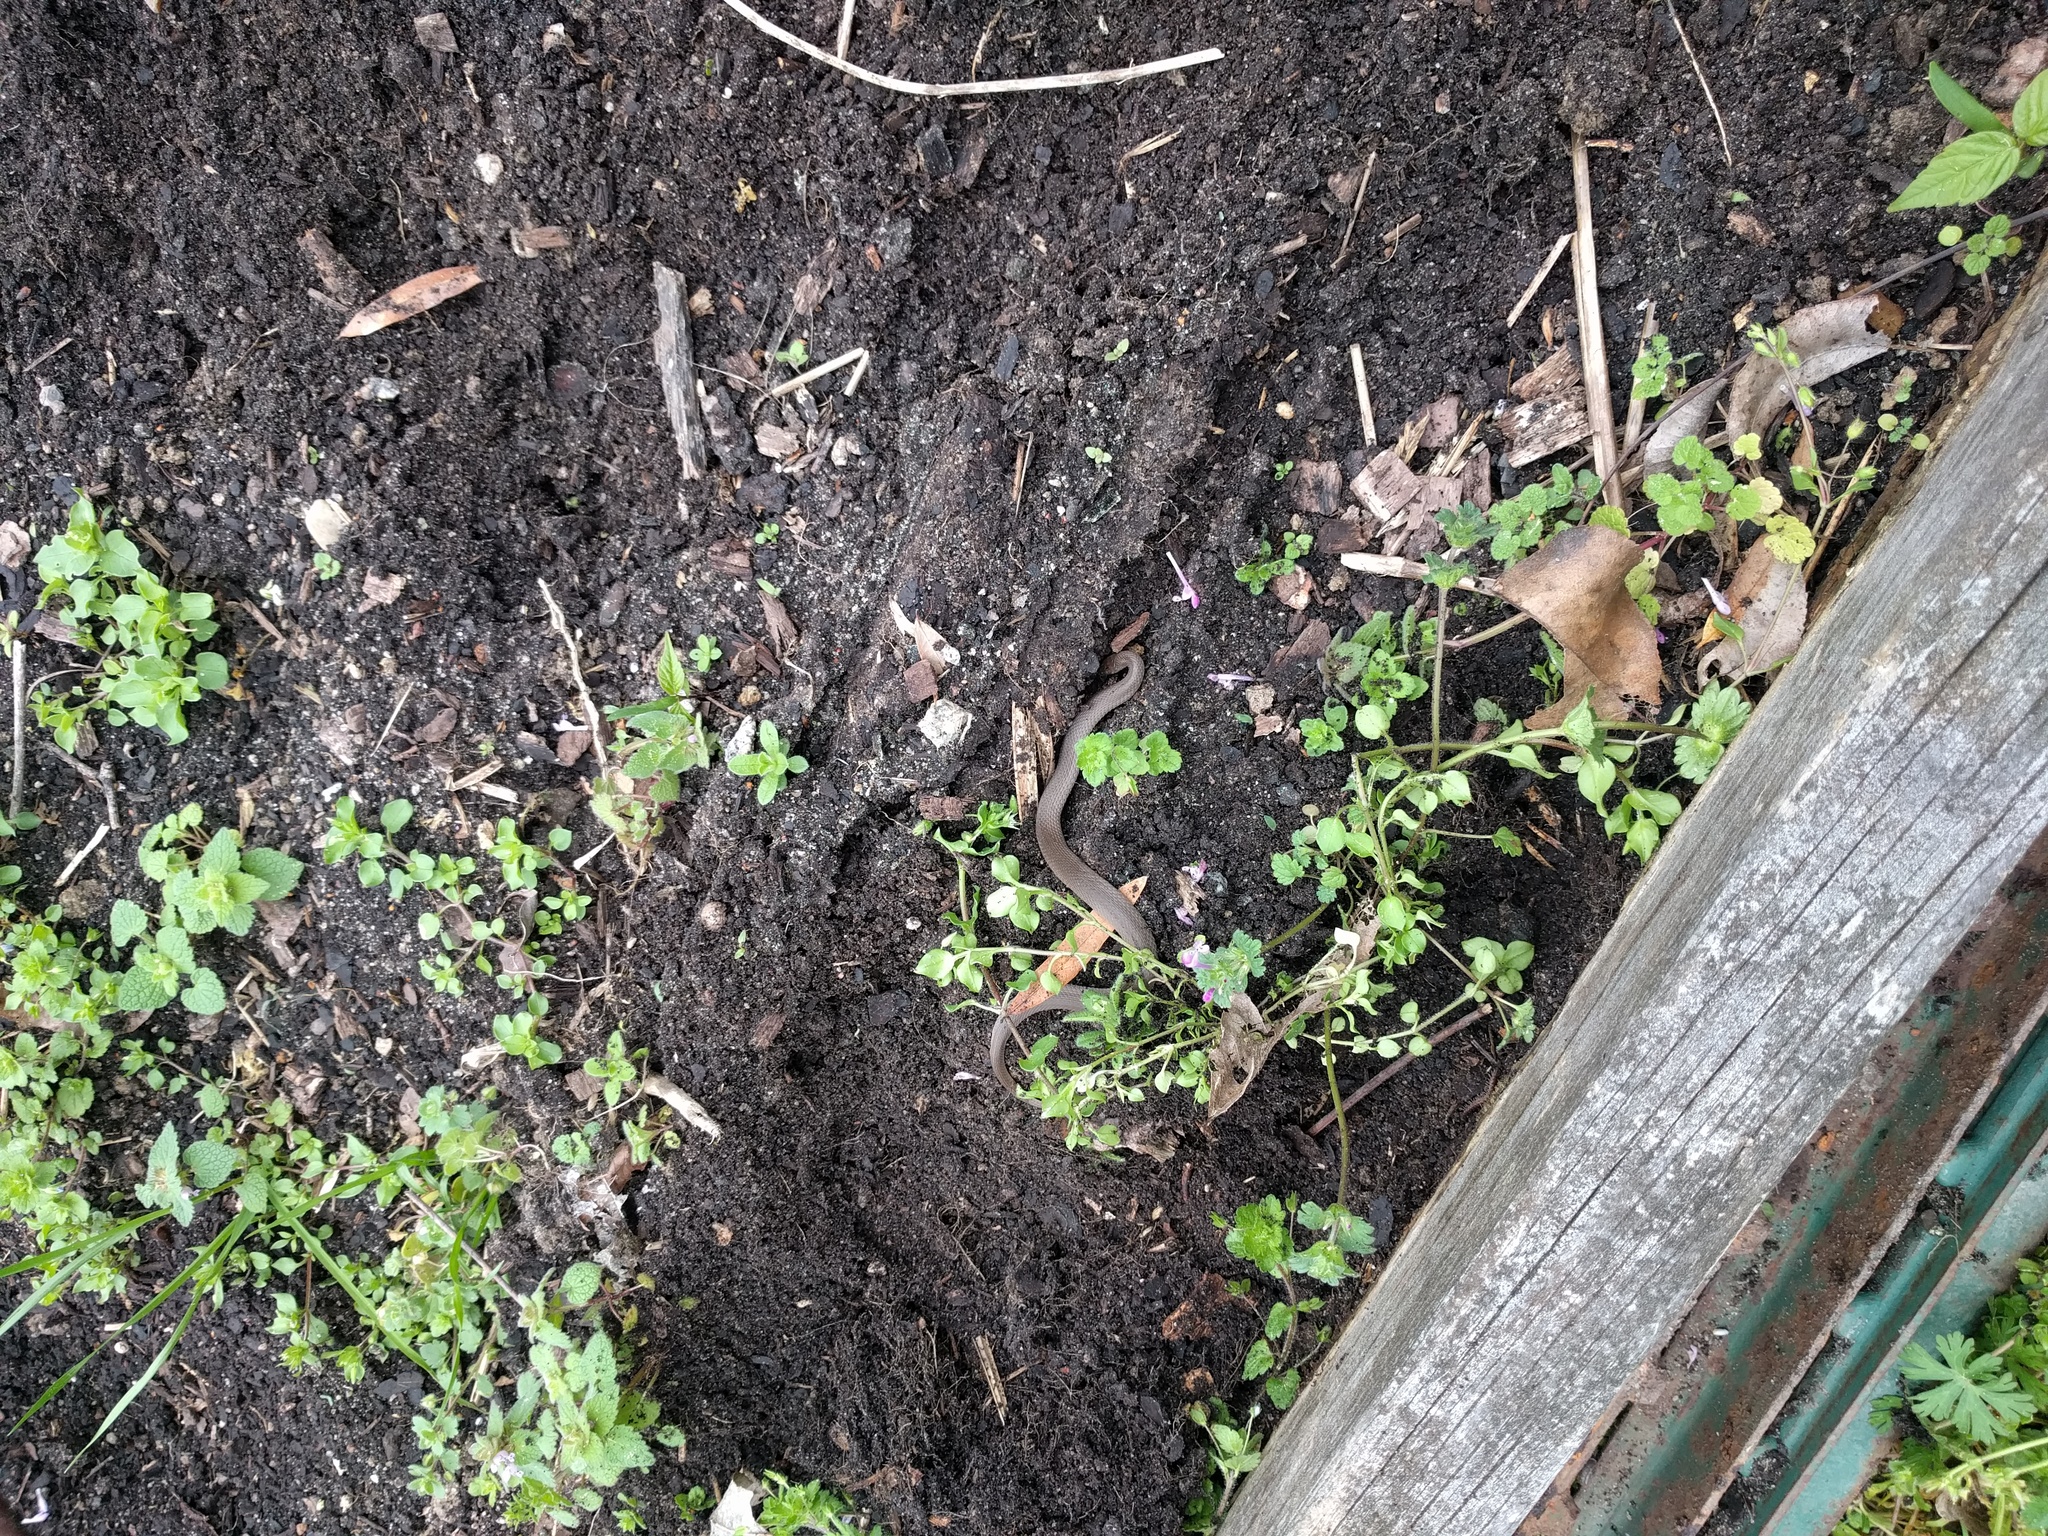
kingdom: Animalia
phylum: Chordata
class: Squamata
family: Colubridae
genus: Haldea
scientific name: Haldea striatula
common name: Rough earth snake
